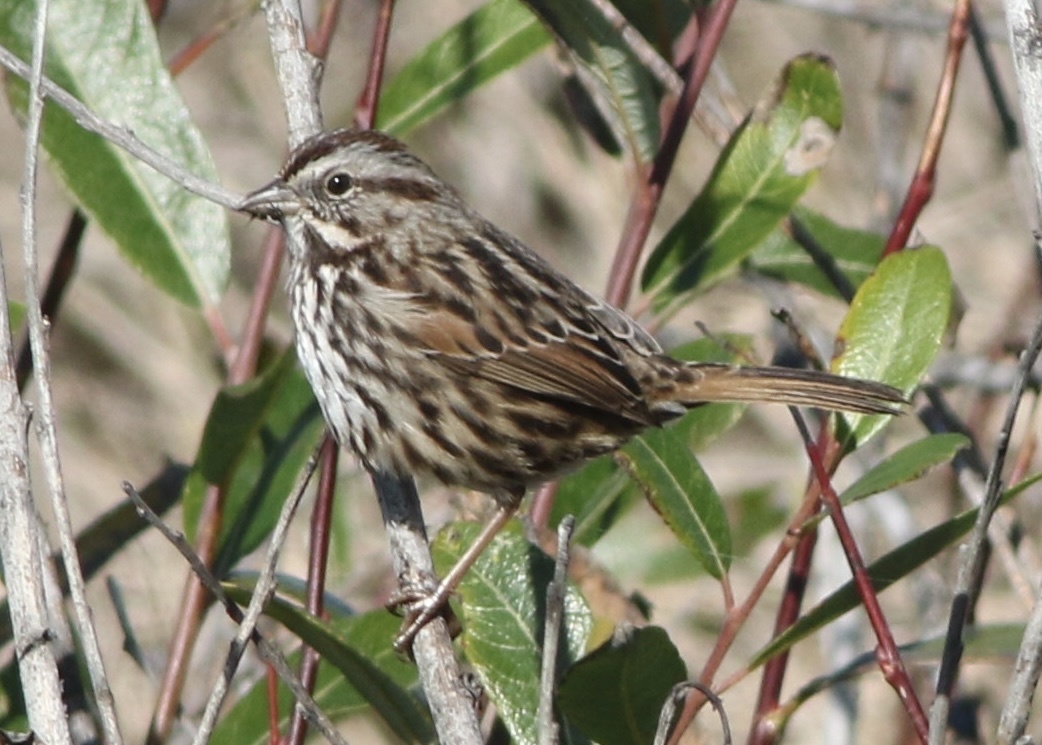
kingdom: Animalia
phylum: Chordata
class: Aves
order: Passeriformes
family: Passerellidae
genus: Melospiza
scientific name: Melospiza melodia
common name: Song sparrow
